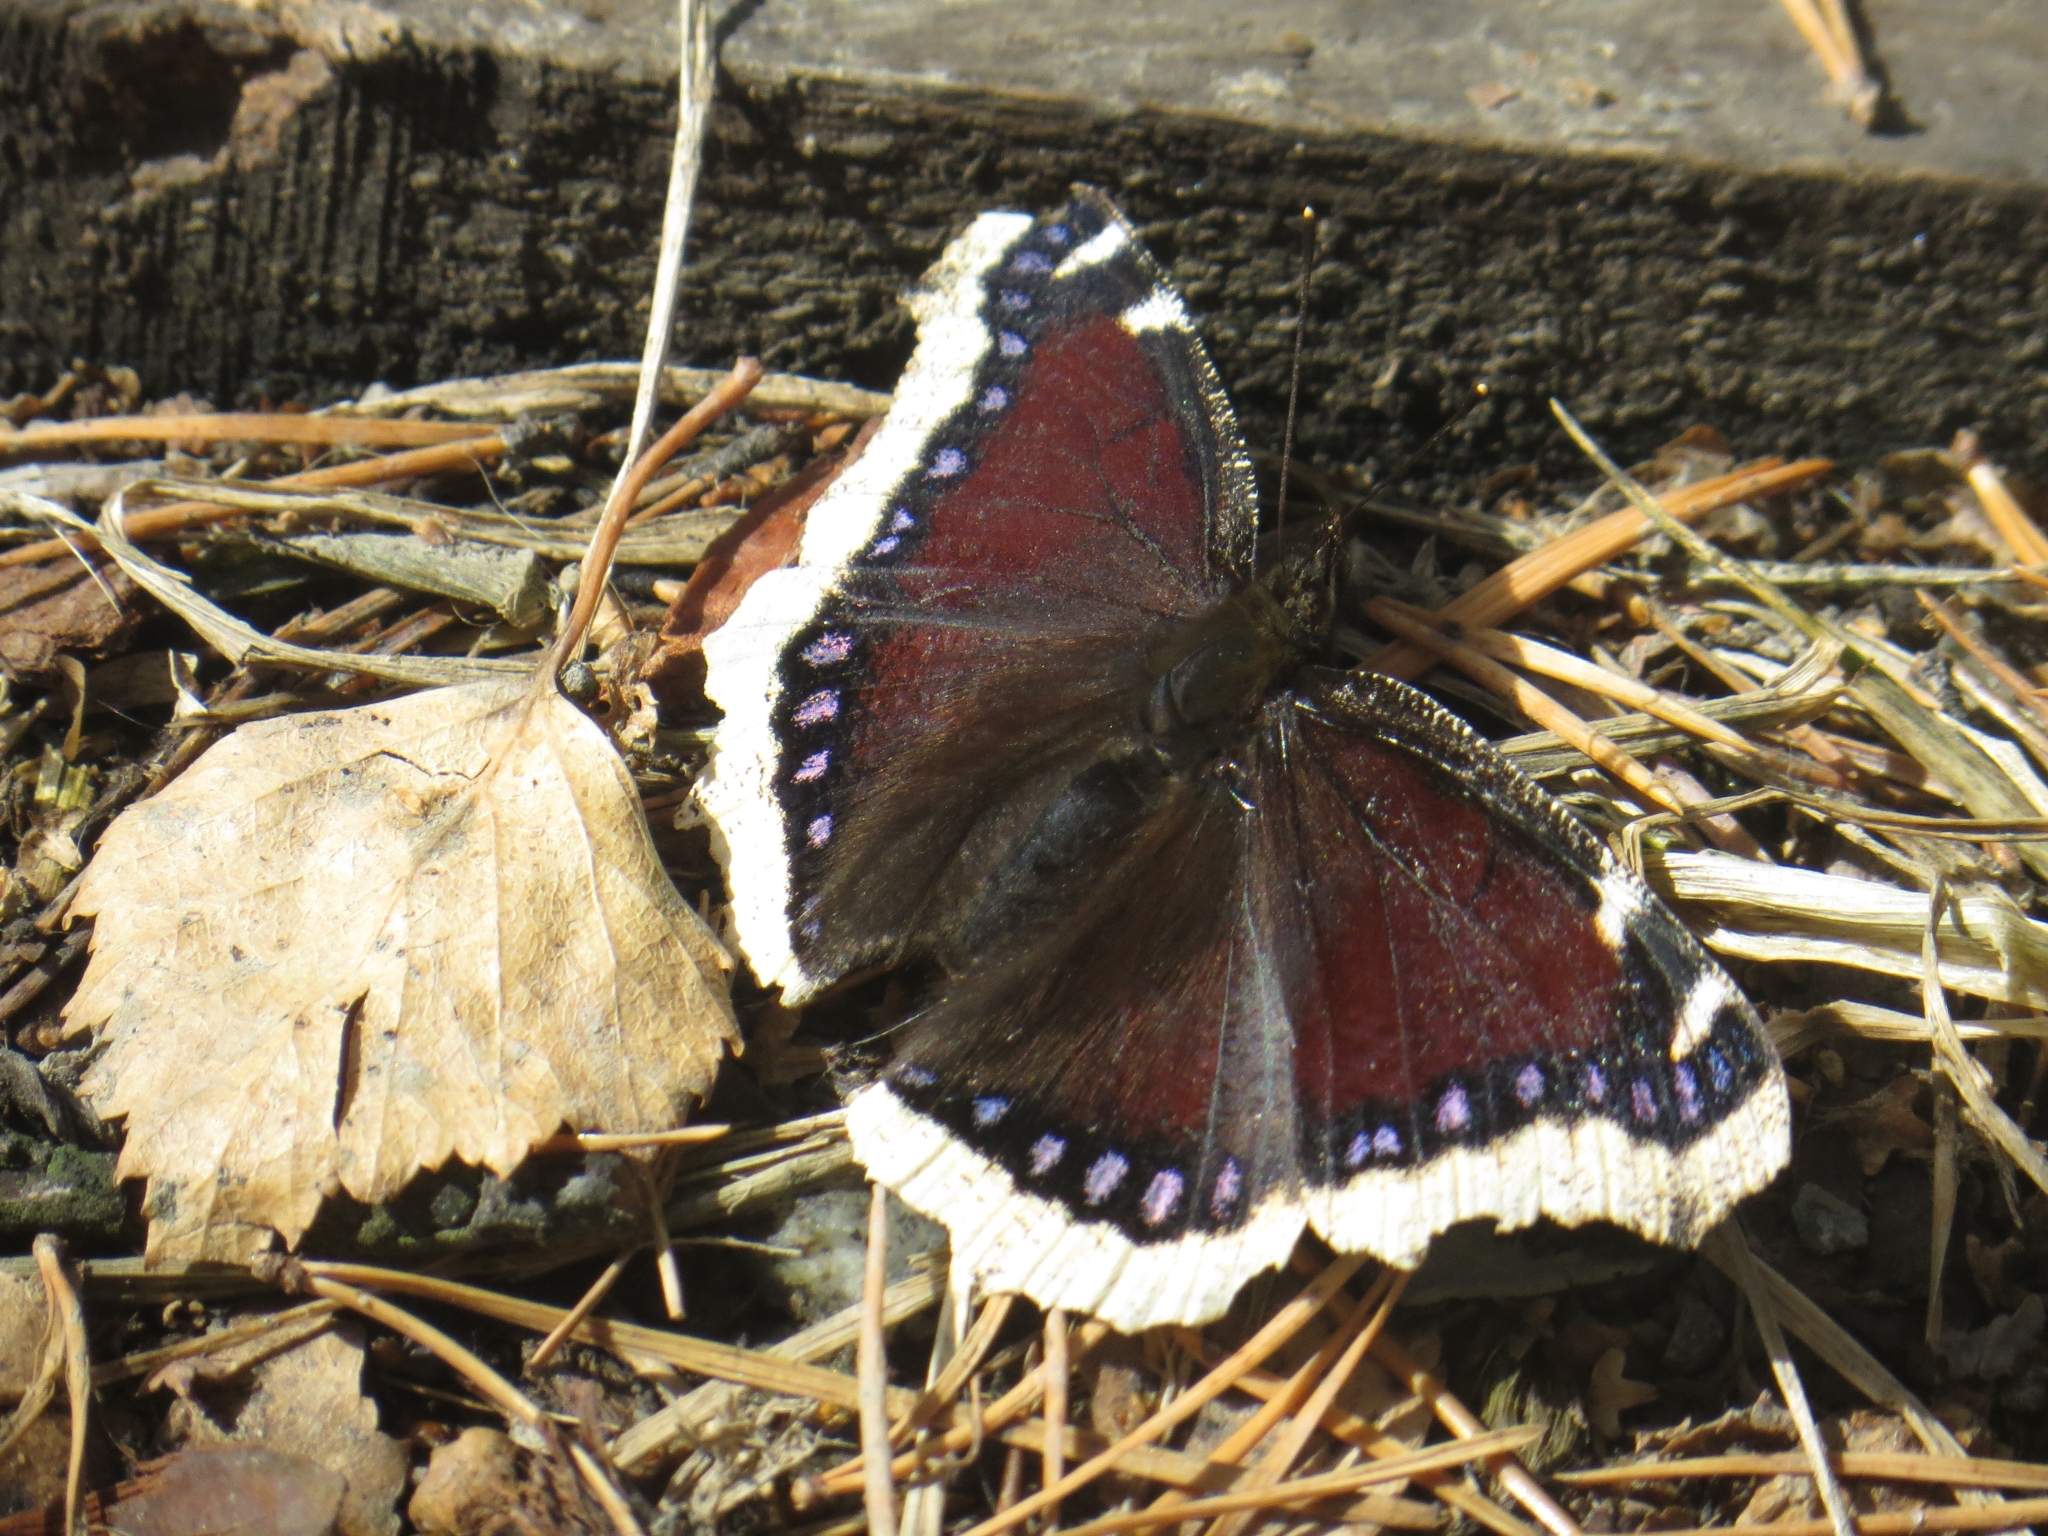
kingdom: Animalia
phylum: Arthropoda
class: Insecta
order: Lepidoptera
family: Nymphalidae
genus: Nymphalis
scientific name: Nymphalis antiopa
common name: Camberwell beauty
